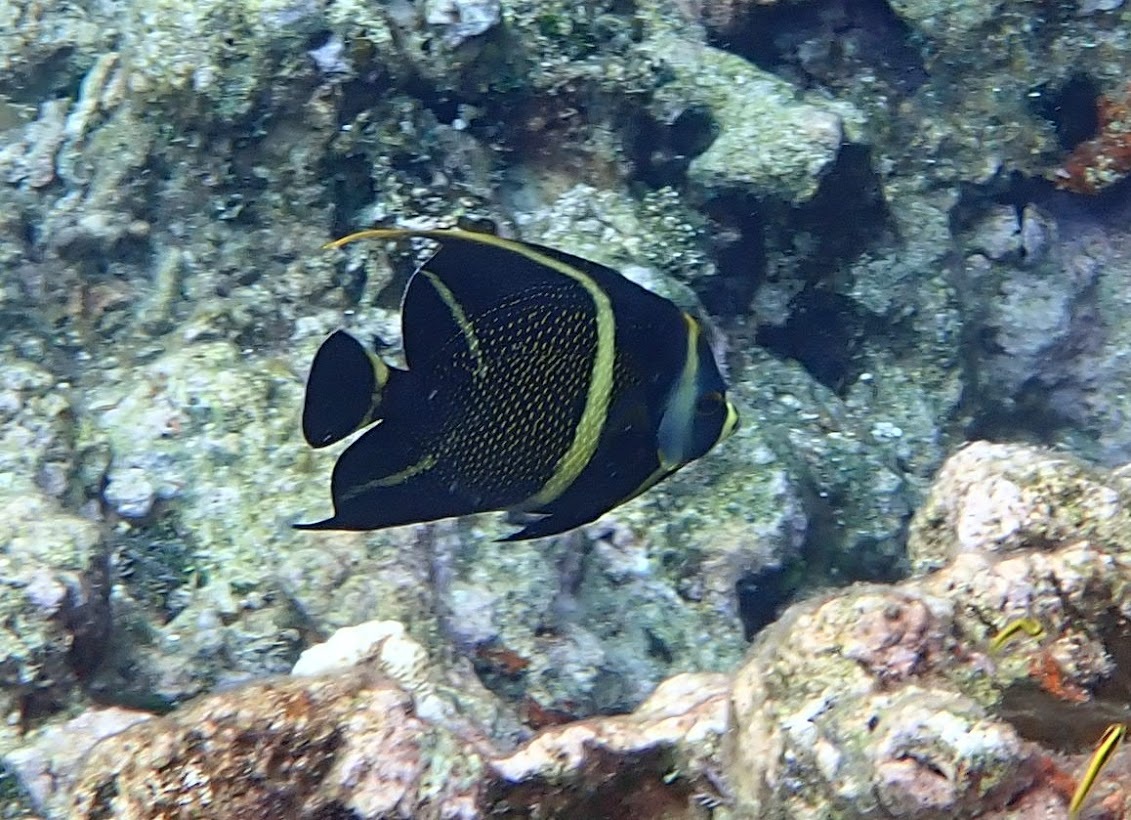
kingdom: Animalia
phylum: Chordata
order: Perciformes
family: Pomacanthidae
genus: Pomacanthus
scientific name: Pomacanthus paru
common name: French angelfish
